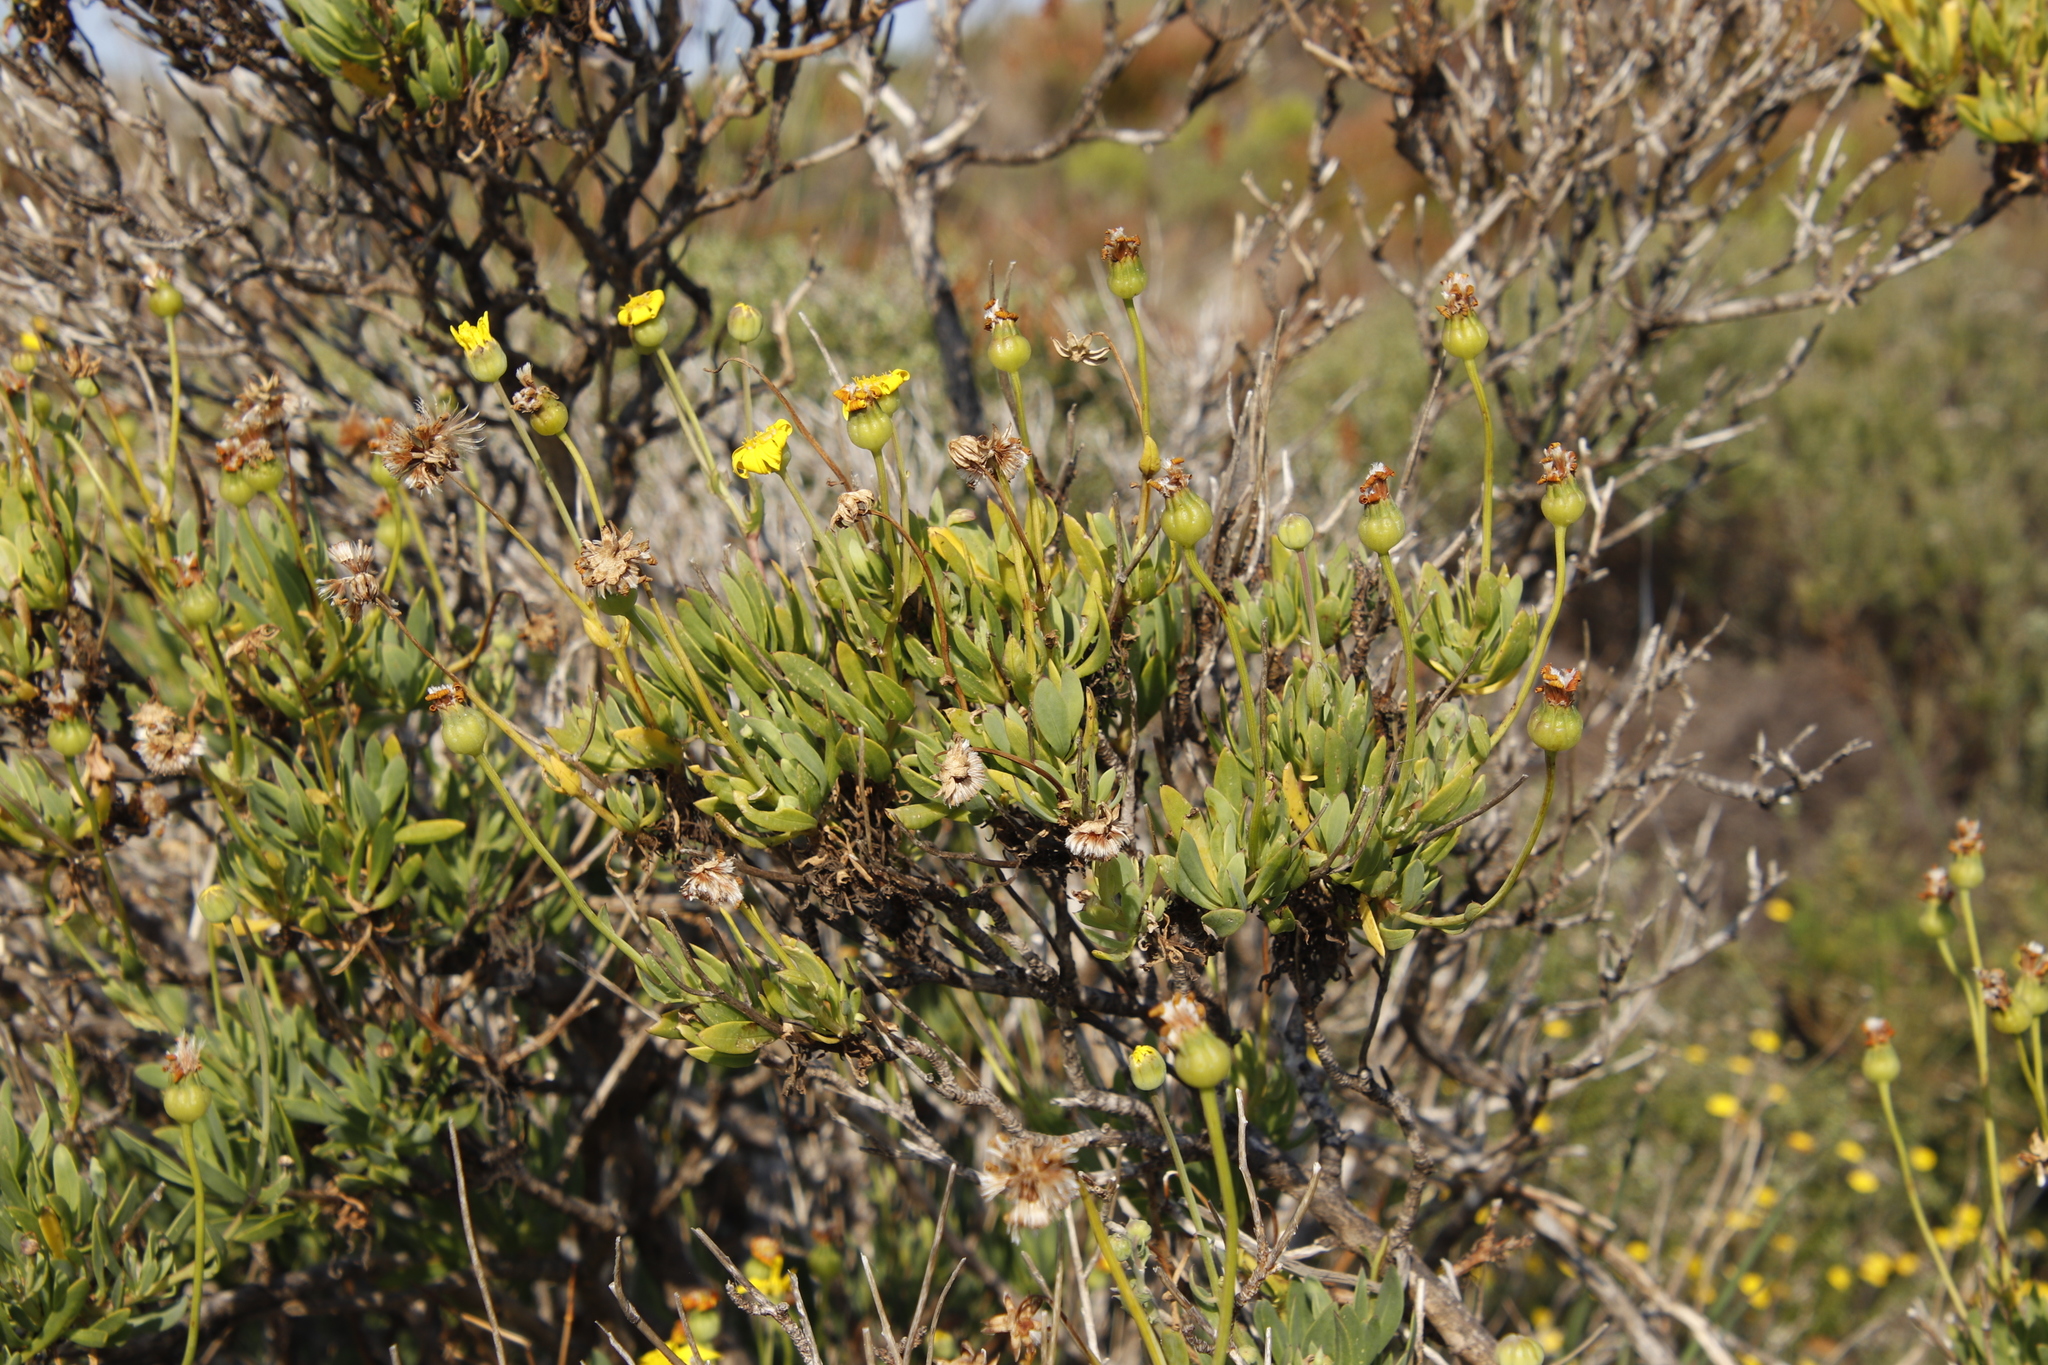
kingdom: Plantae
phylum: Tracheophyta
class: Magnoliopsida
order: Asterales
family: Asteraceae
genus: Othonna
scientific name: Othonna coronopifolia
